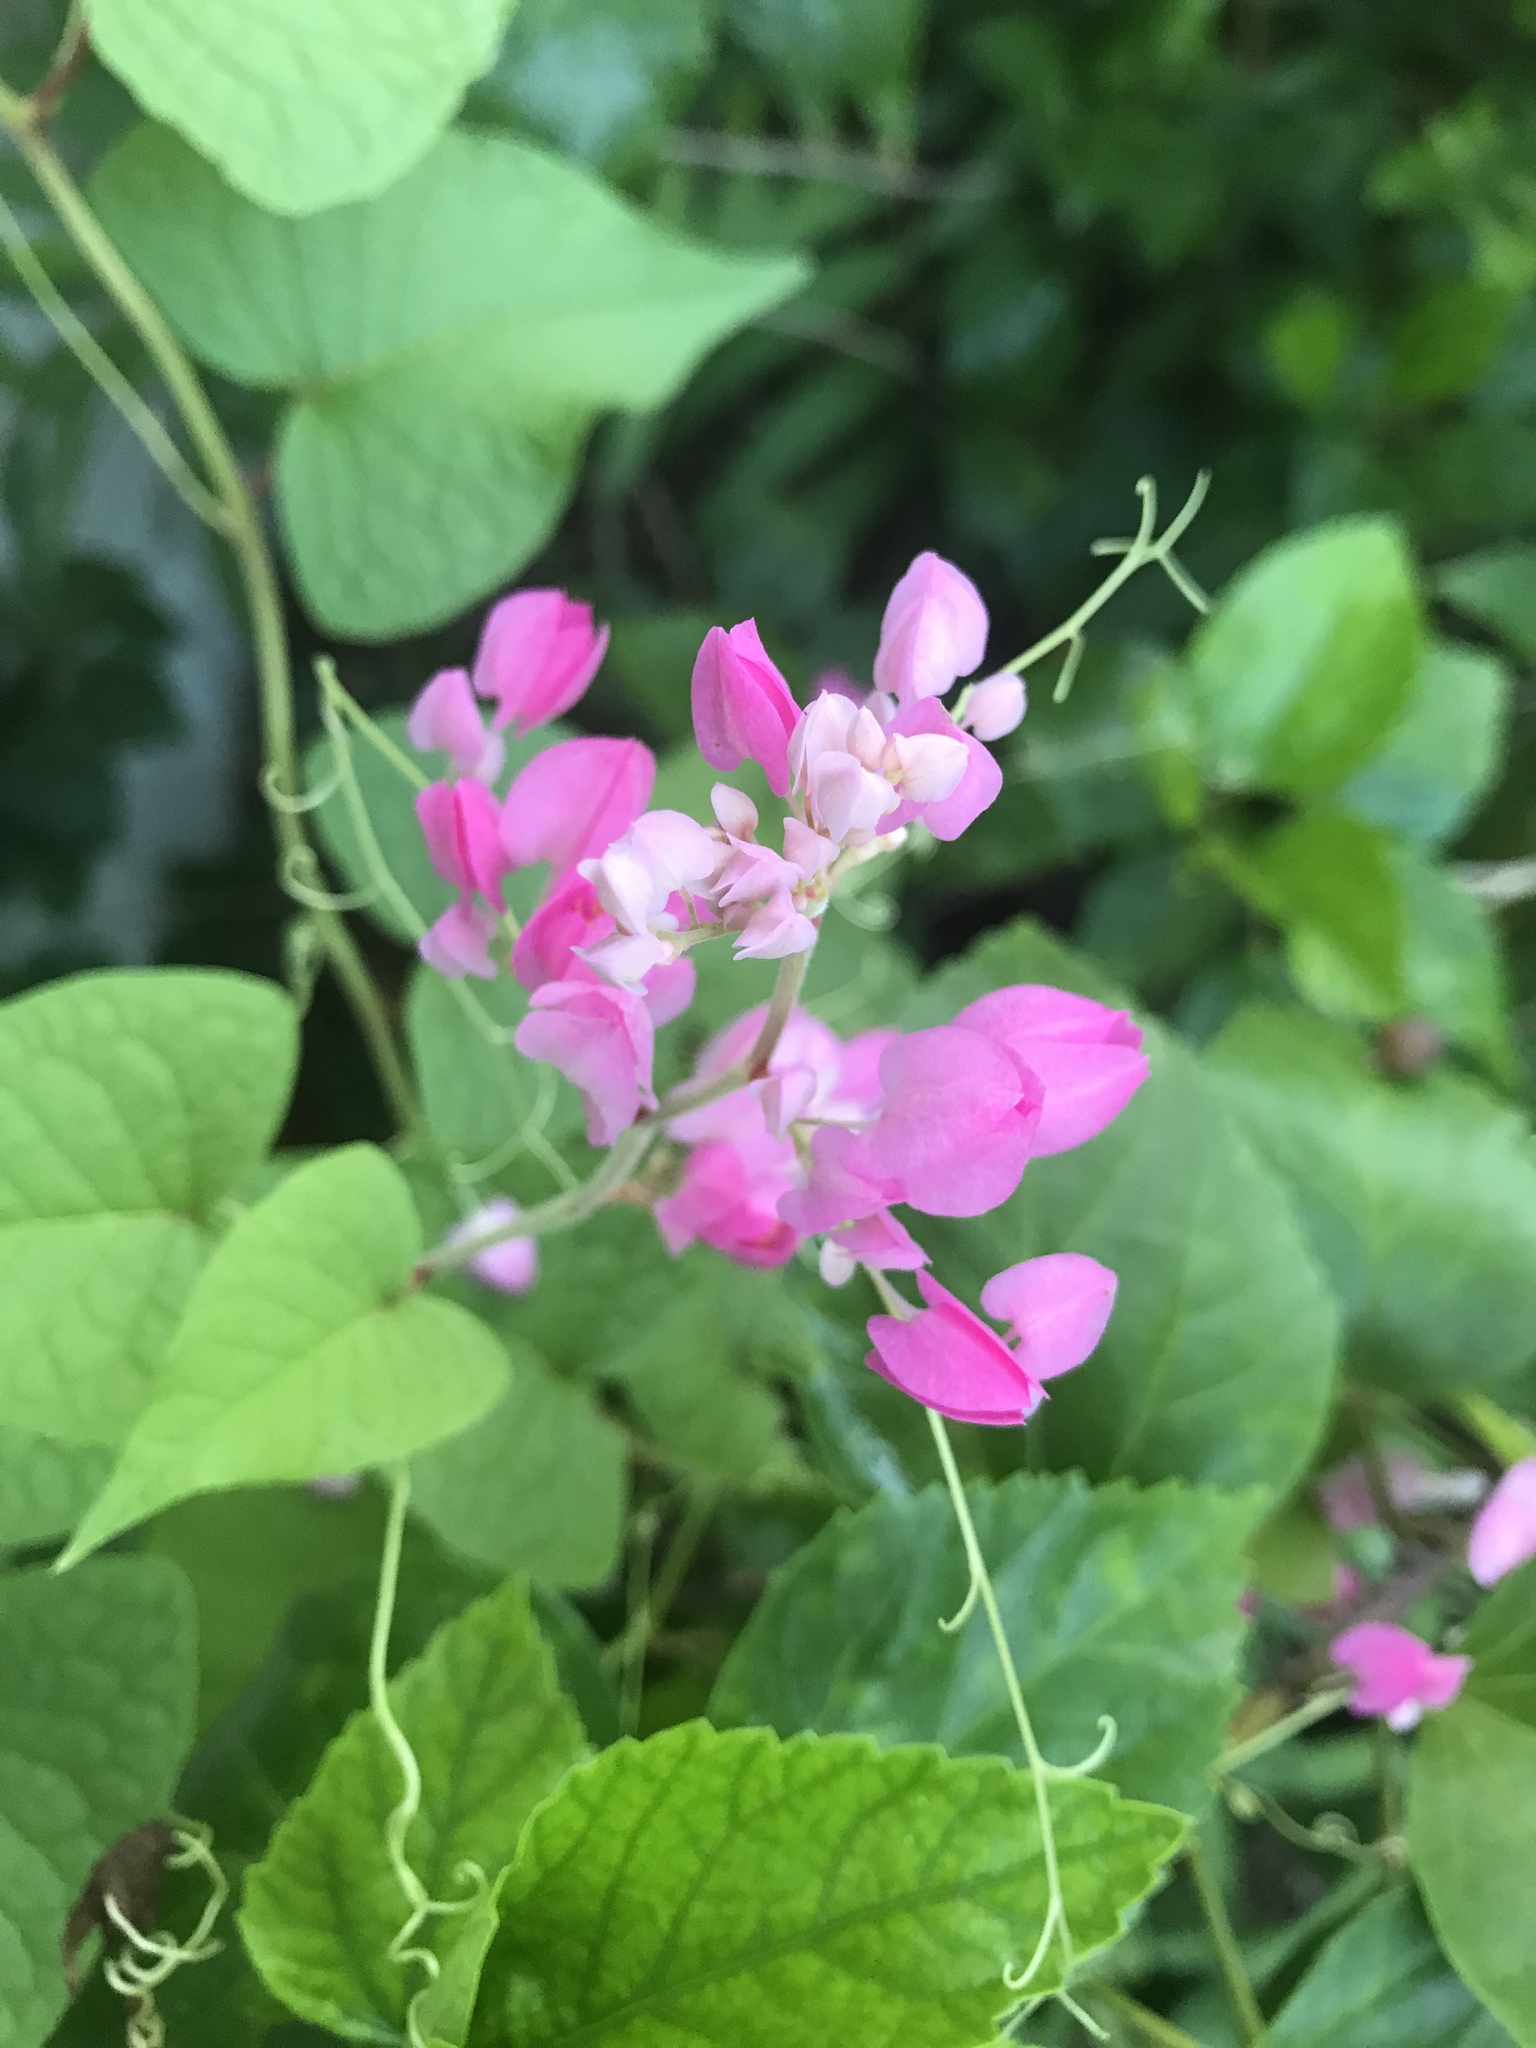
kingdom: Plantae
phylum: Tracheophyta
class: Magnoliopsida
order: Caryophyllales
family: Polygonaceae
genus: Antigonon
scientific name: Antigonon leptopus
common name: Coral vine
